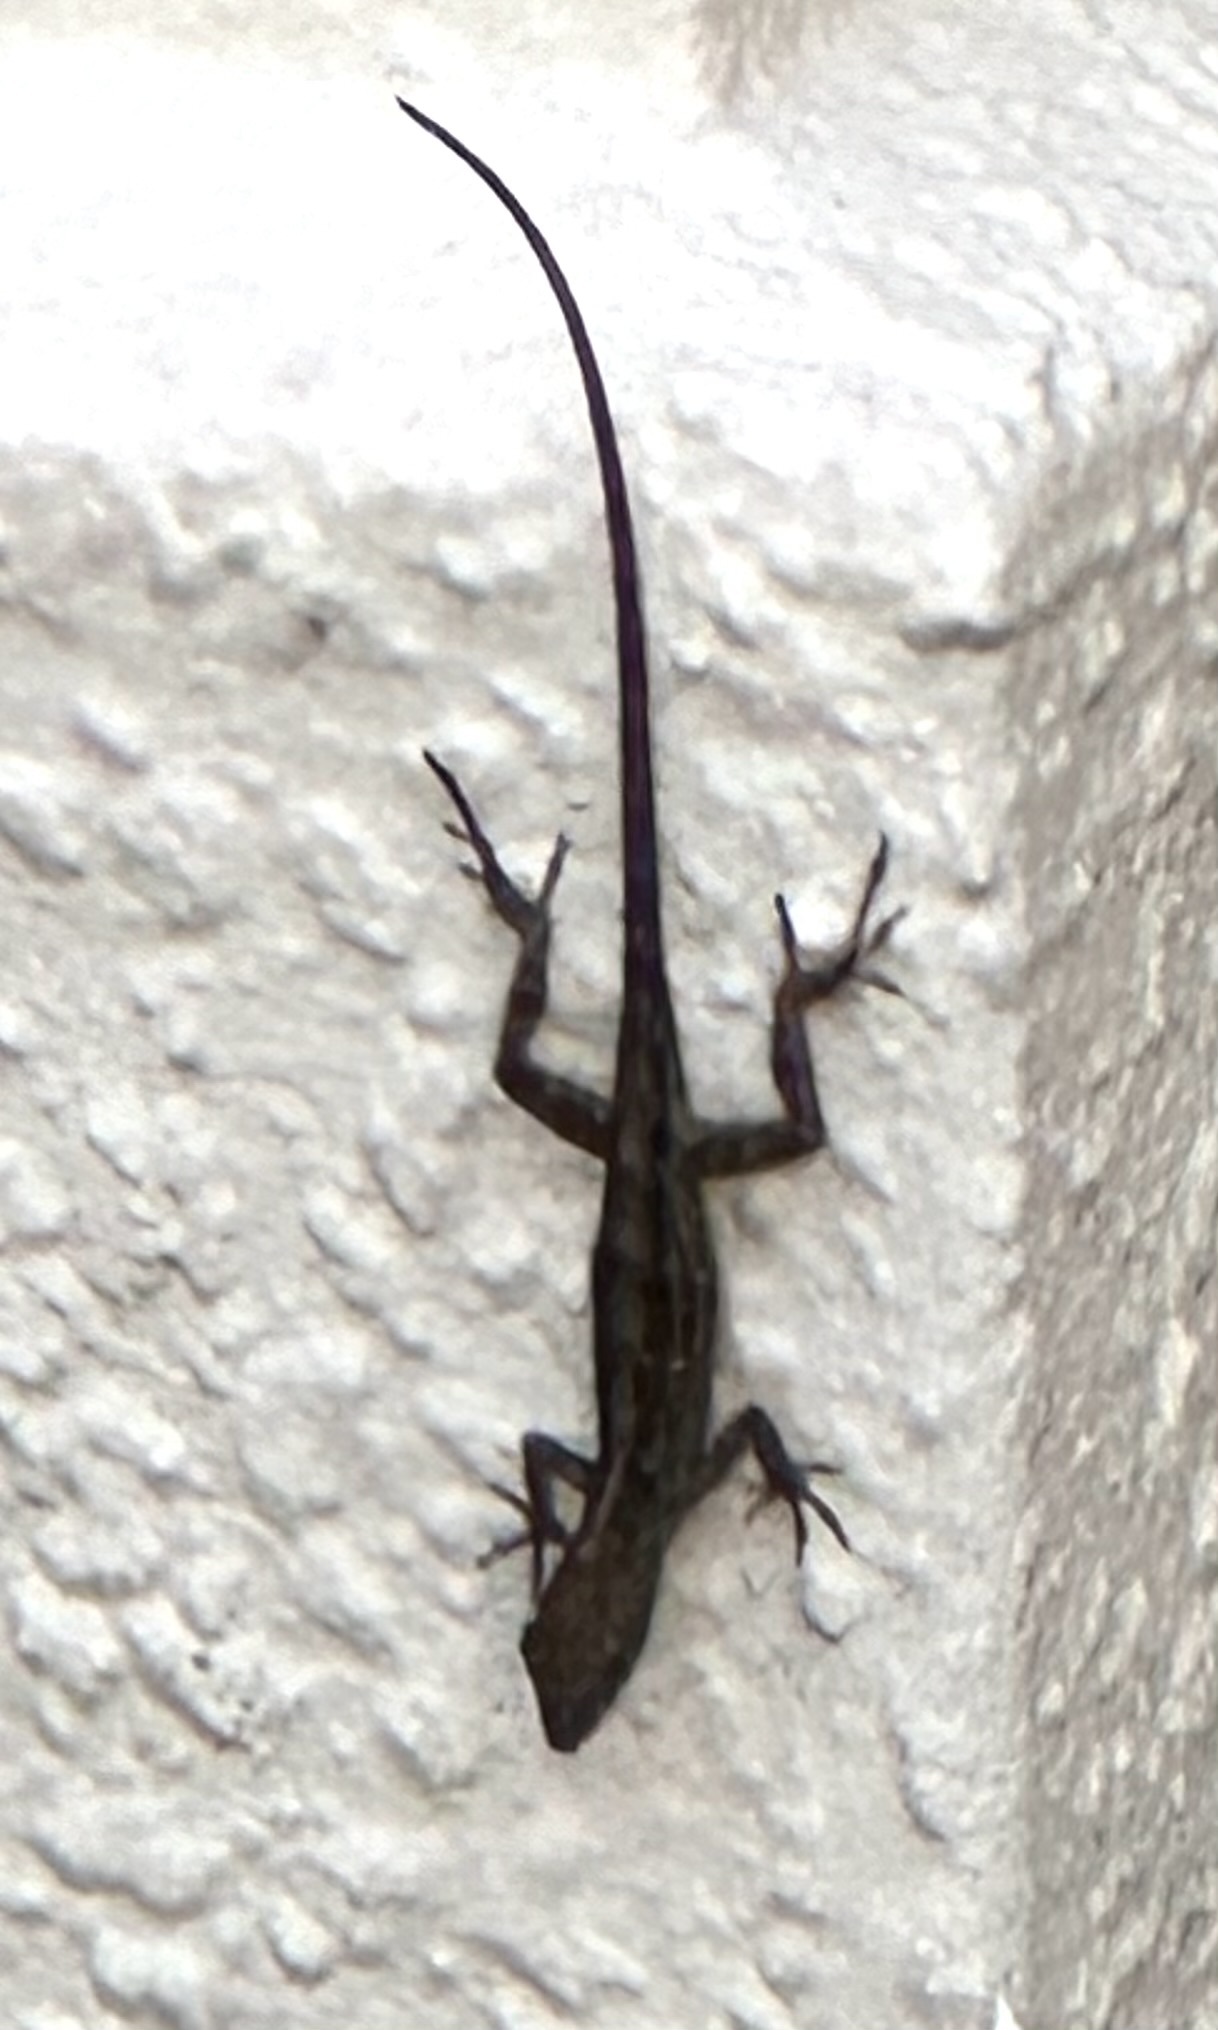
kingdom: Animalia
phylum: Chordata
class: Squamata
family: Dactyloidae
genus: Anolis
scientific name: Anolis sagrei
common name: Brown anole
